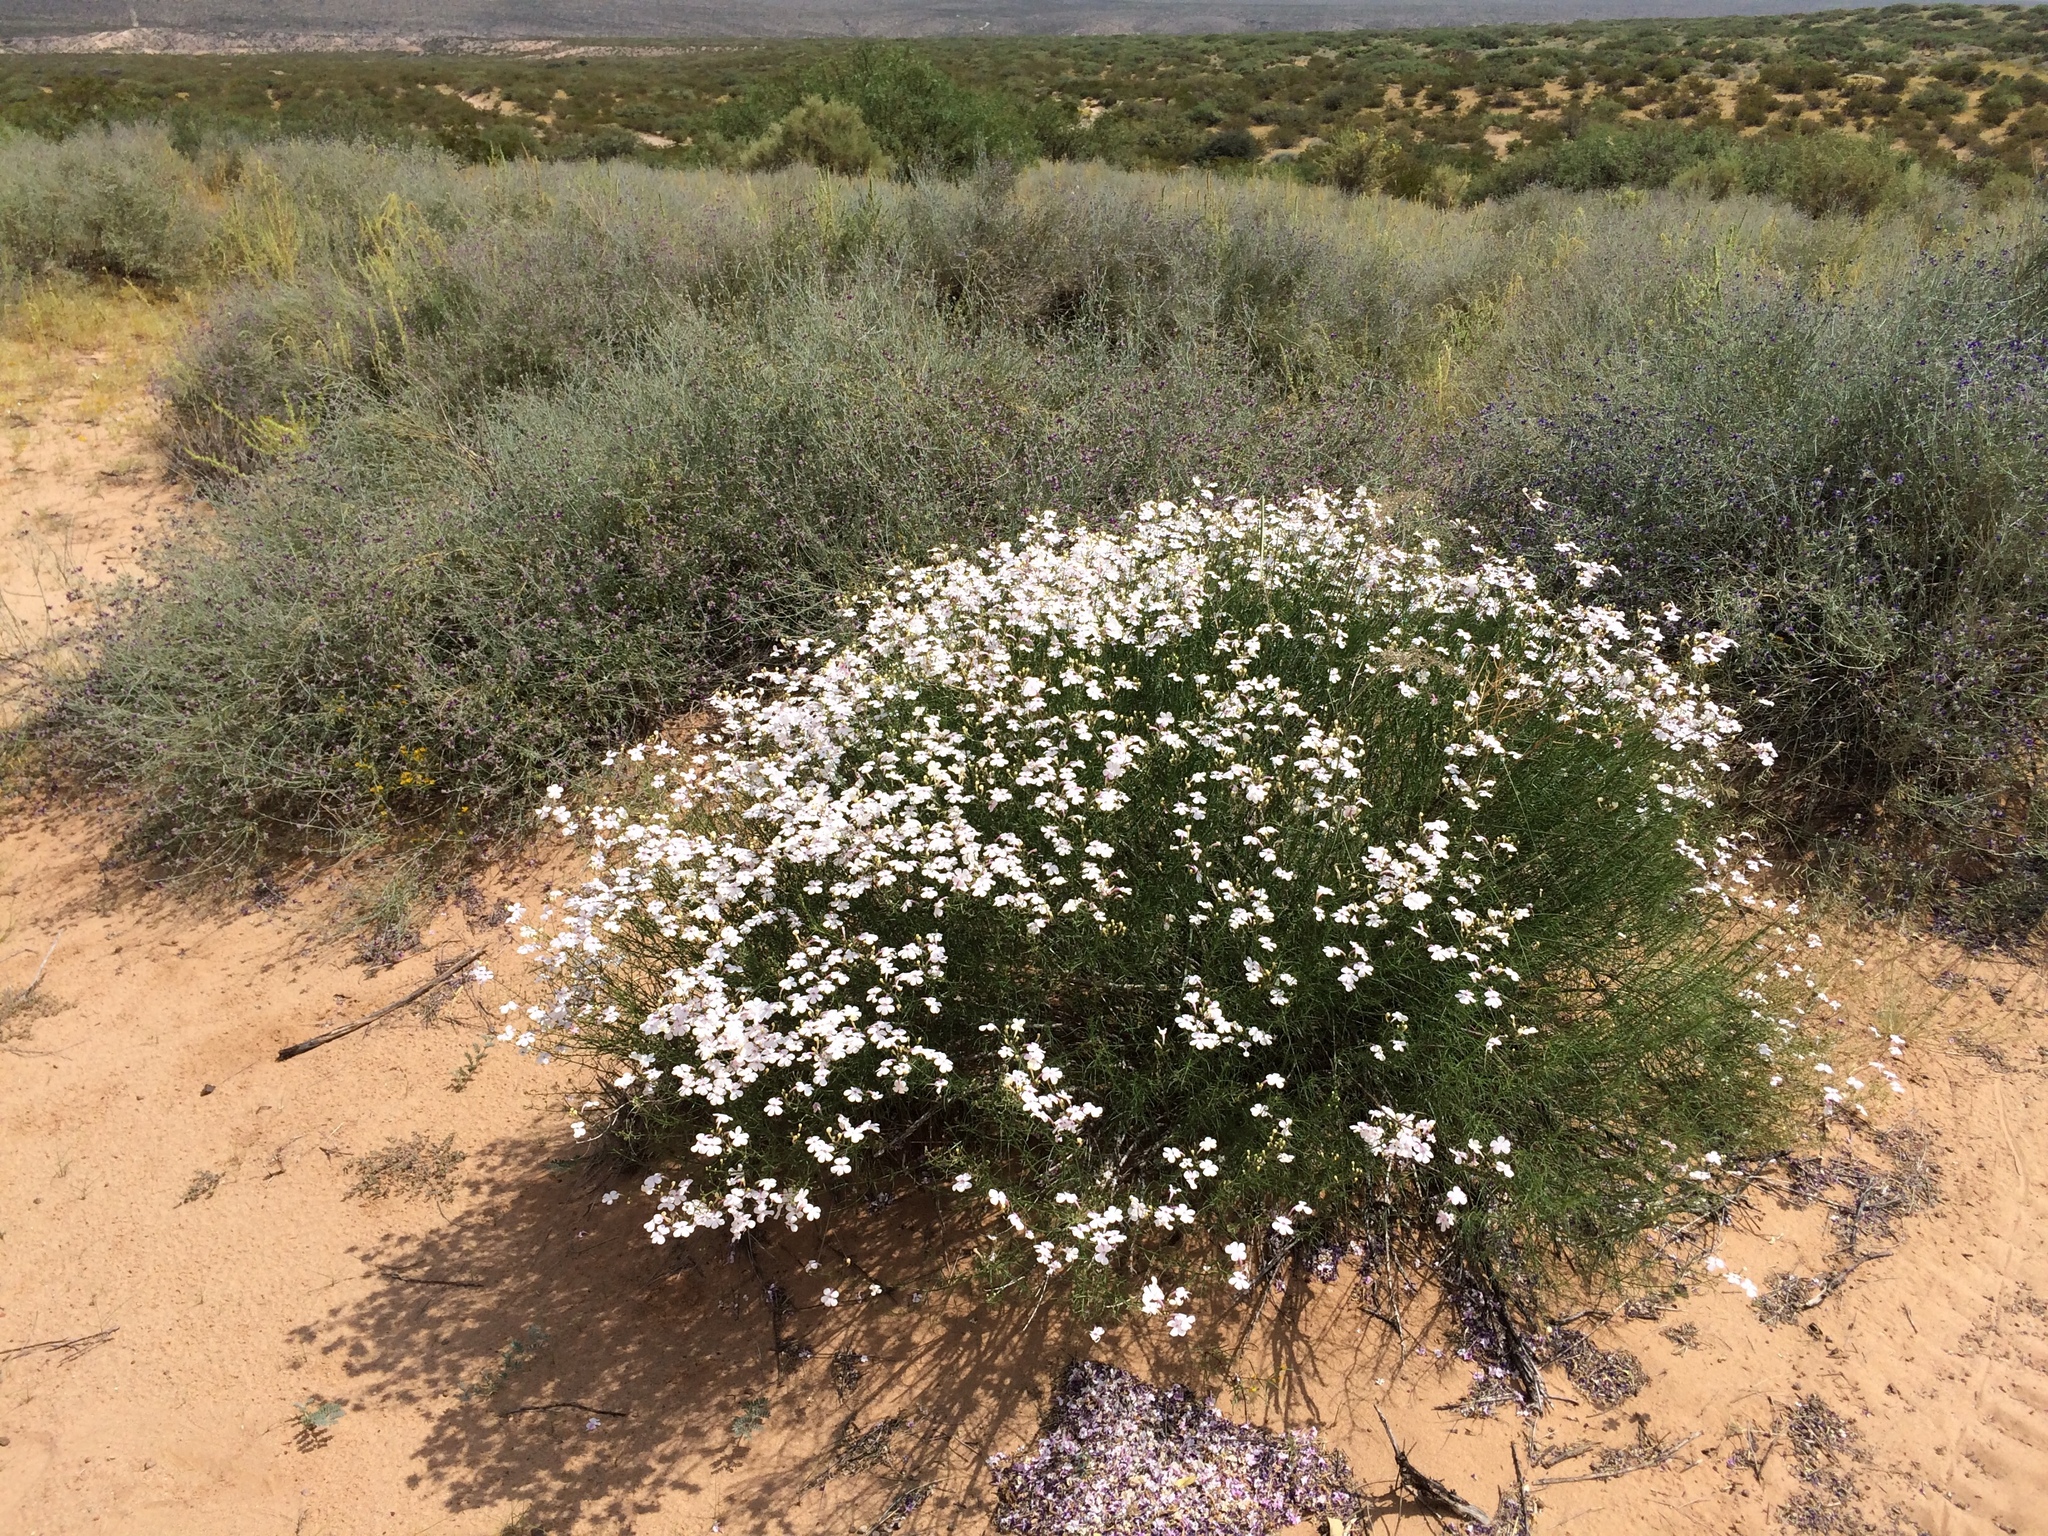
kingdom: Plantae
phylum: Tracheophyta
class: Magnoliopsida
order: Lamiales
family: Plantaginaceae
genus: Penstemon
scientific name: Penstemon ambiguus
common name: Bush penstemon
